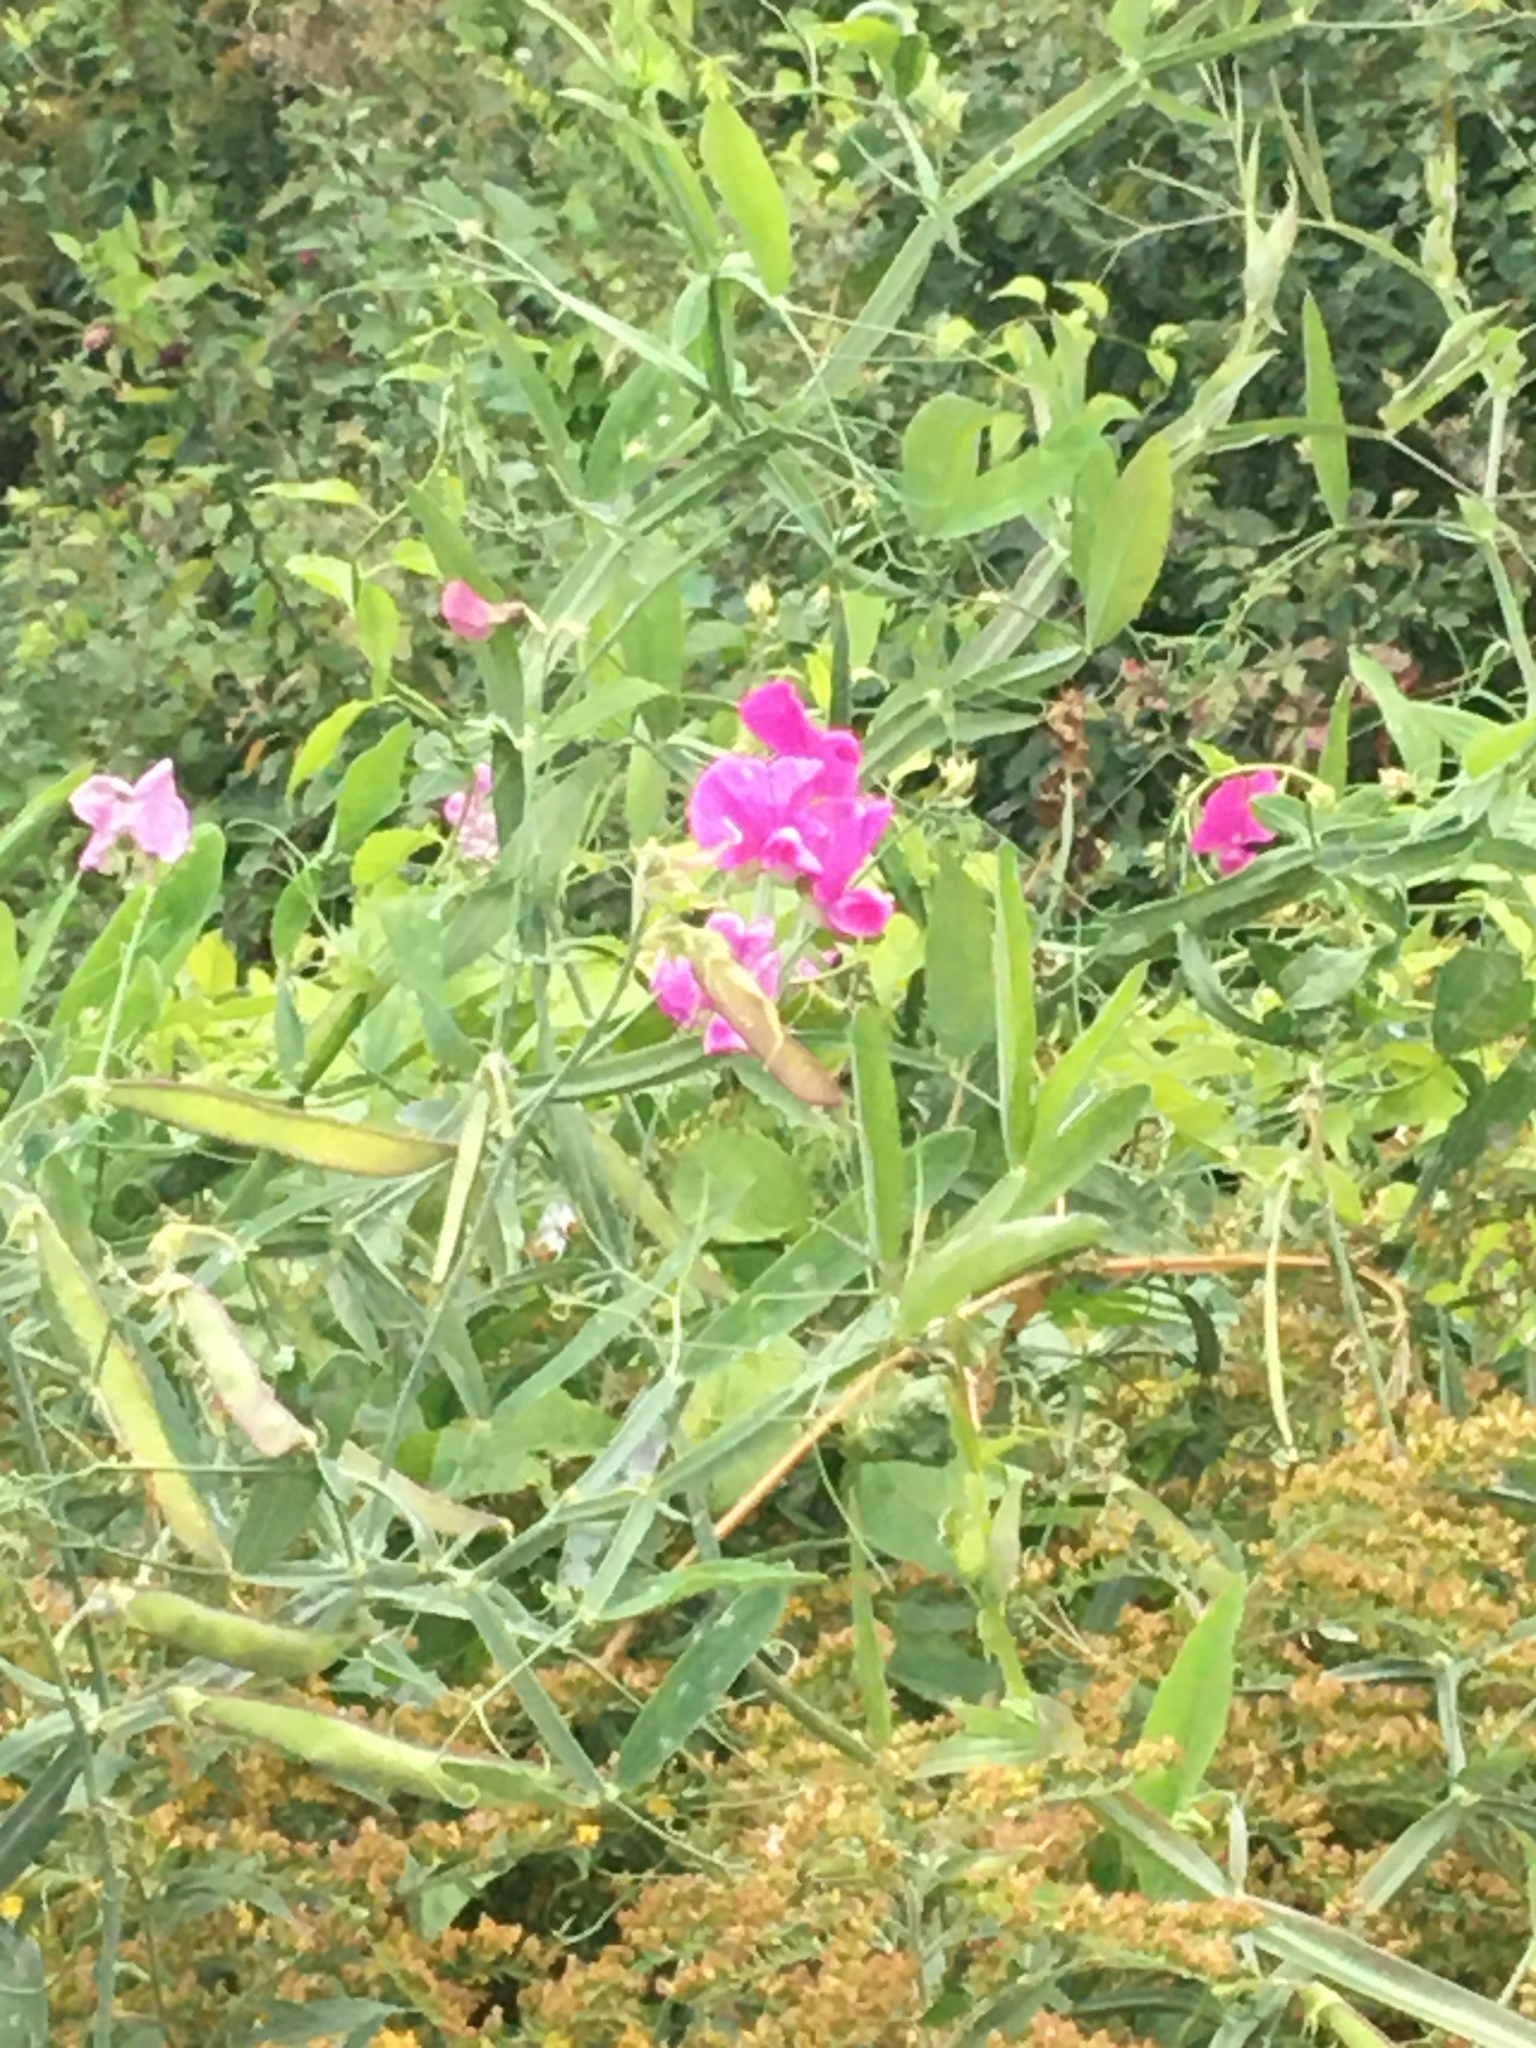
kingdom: Plantae
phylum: Tracheophyta
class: Magnoliopsida
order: Fabales
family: Fabaceae
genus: Lathyrus
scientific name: Lathyrus latifolius
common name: Perennial pea
